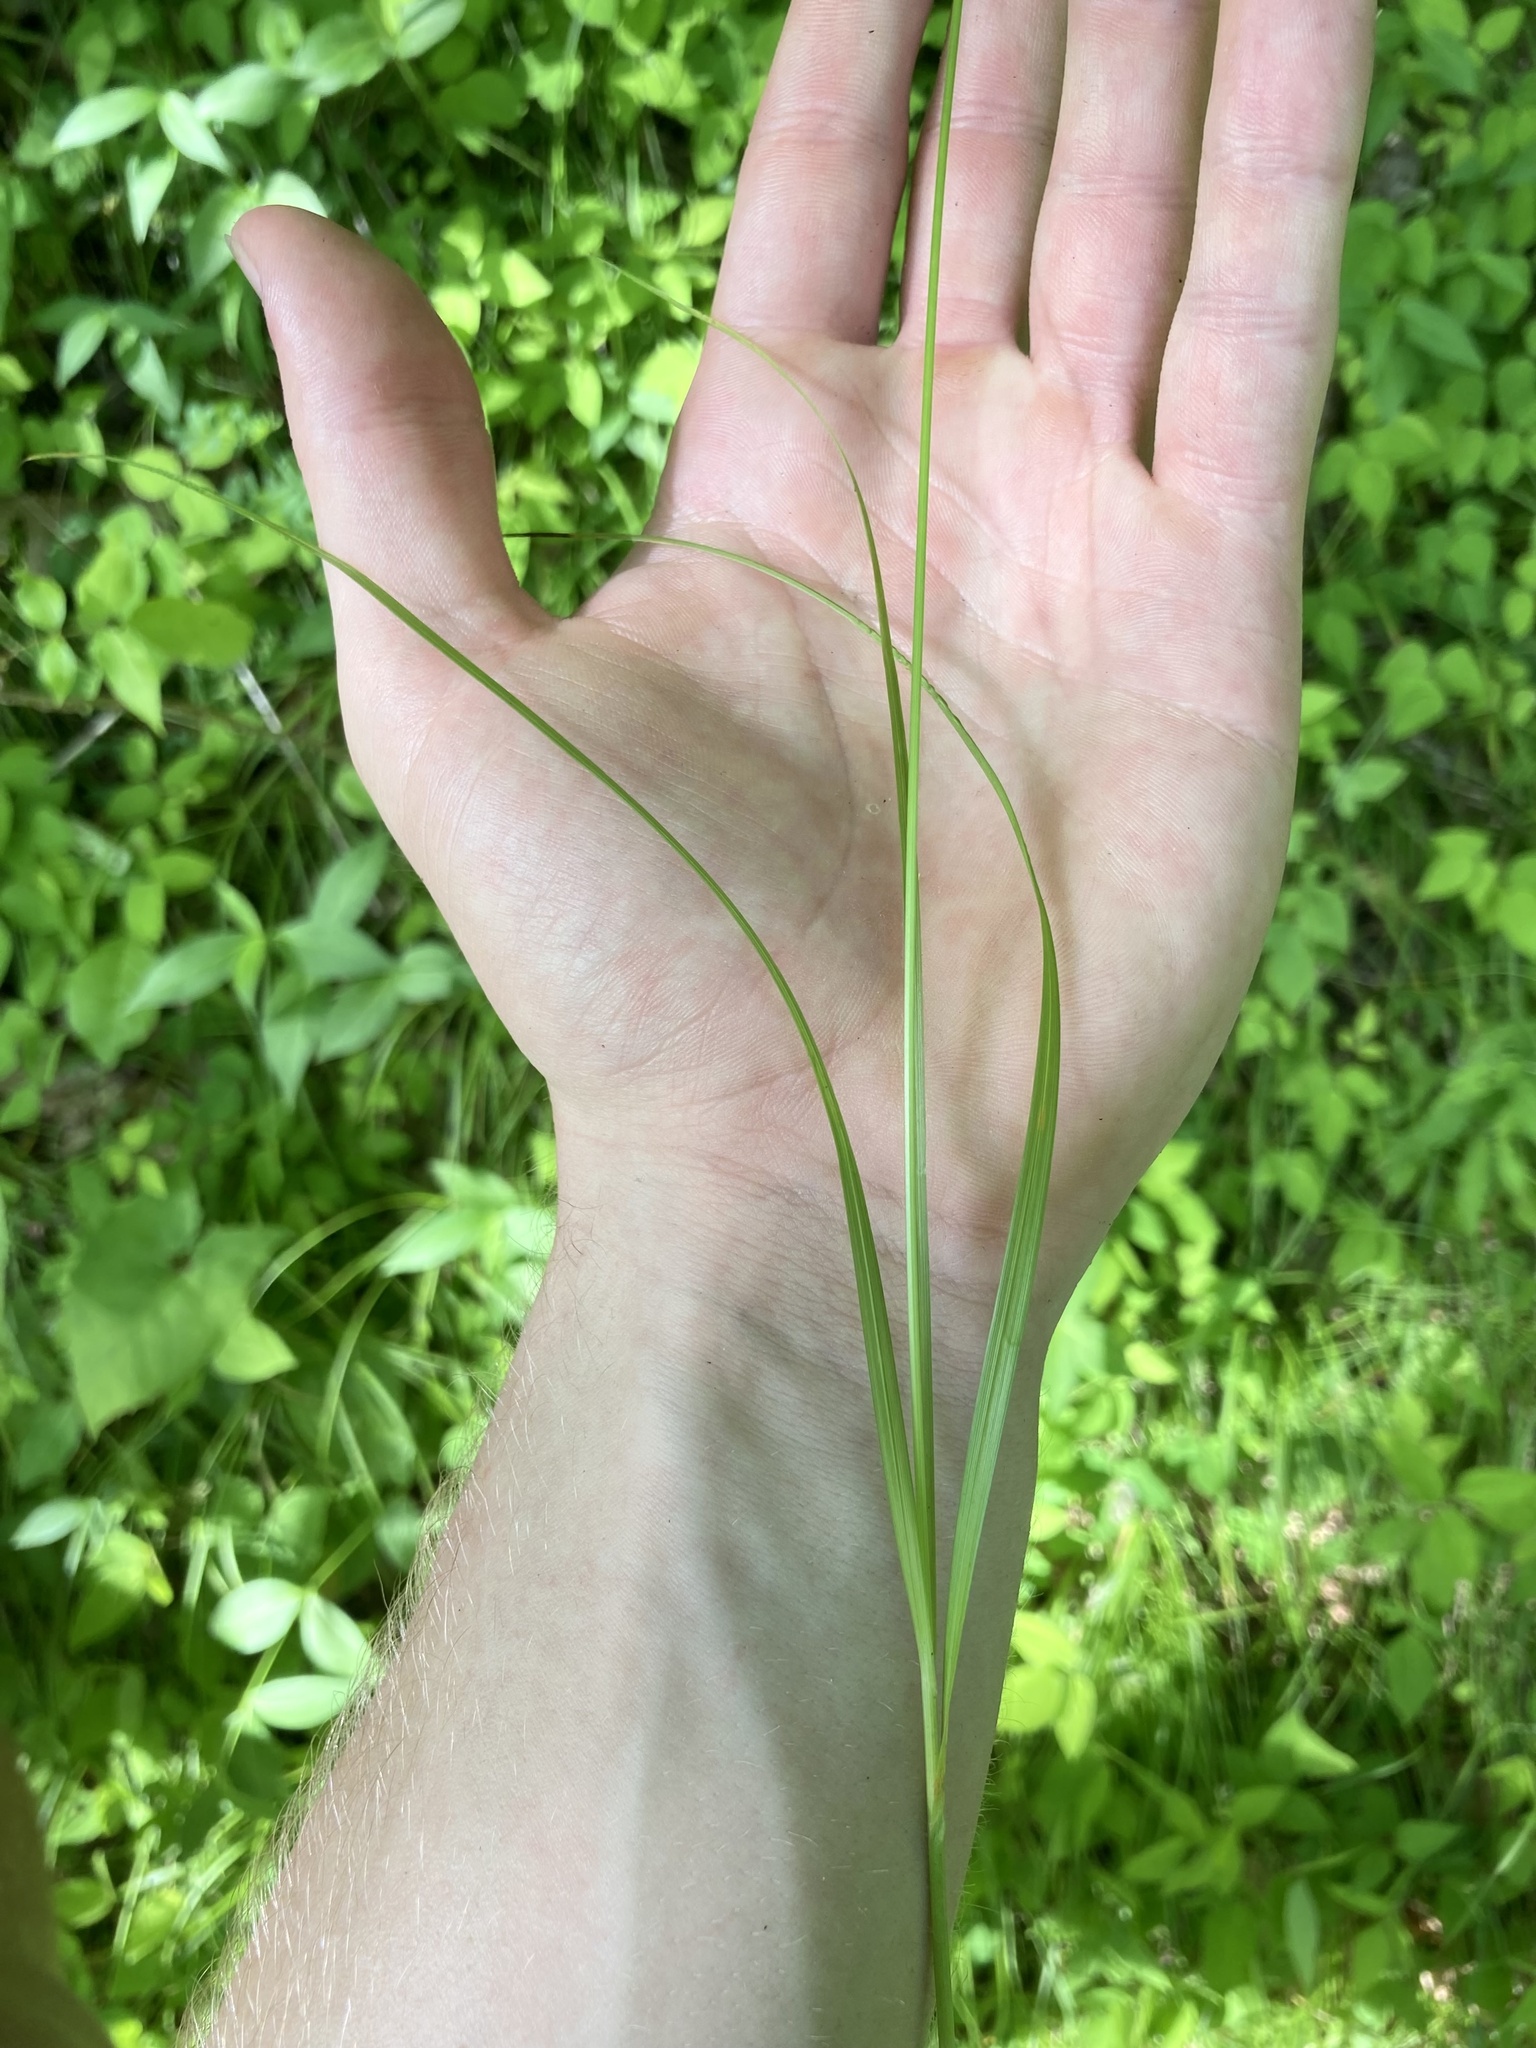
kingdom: Plantae
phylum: Tracheophyta
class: Liliopsida
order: Poales
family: Cyperaceae
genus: Carex
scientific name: Carex cephalophora
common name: Oval-headed sedge
